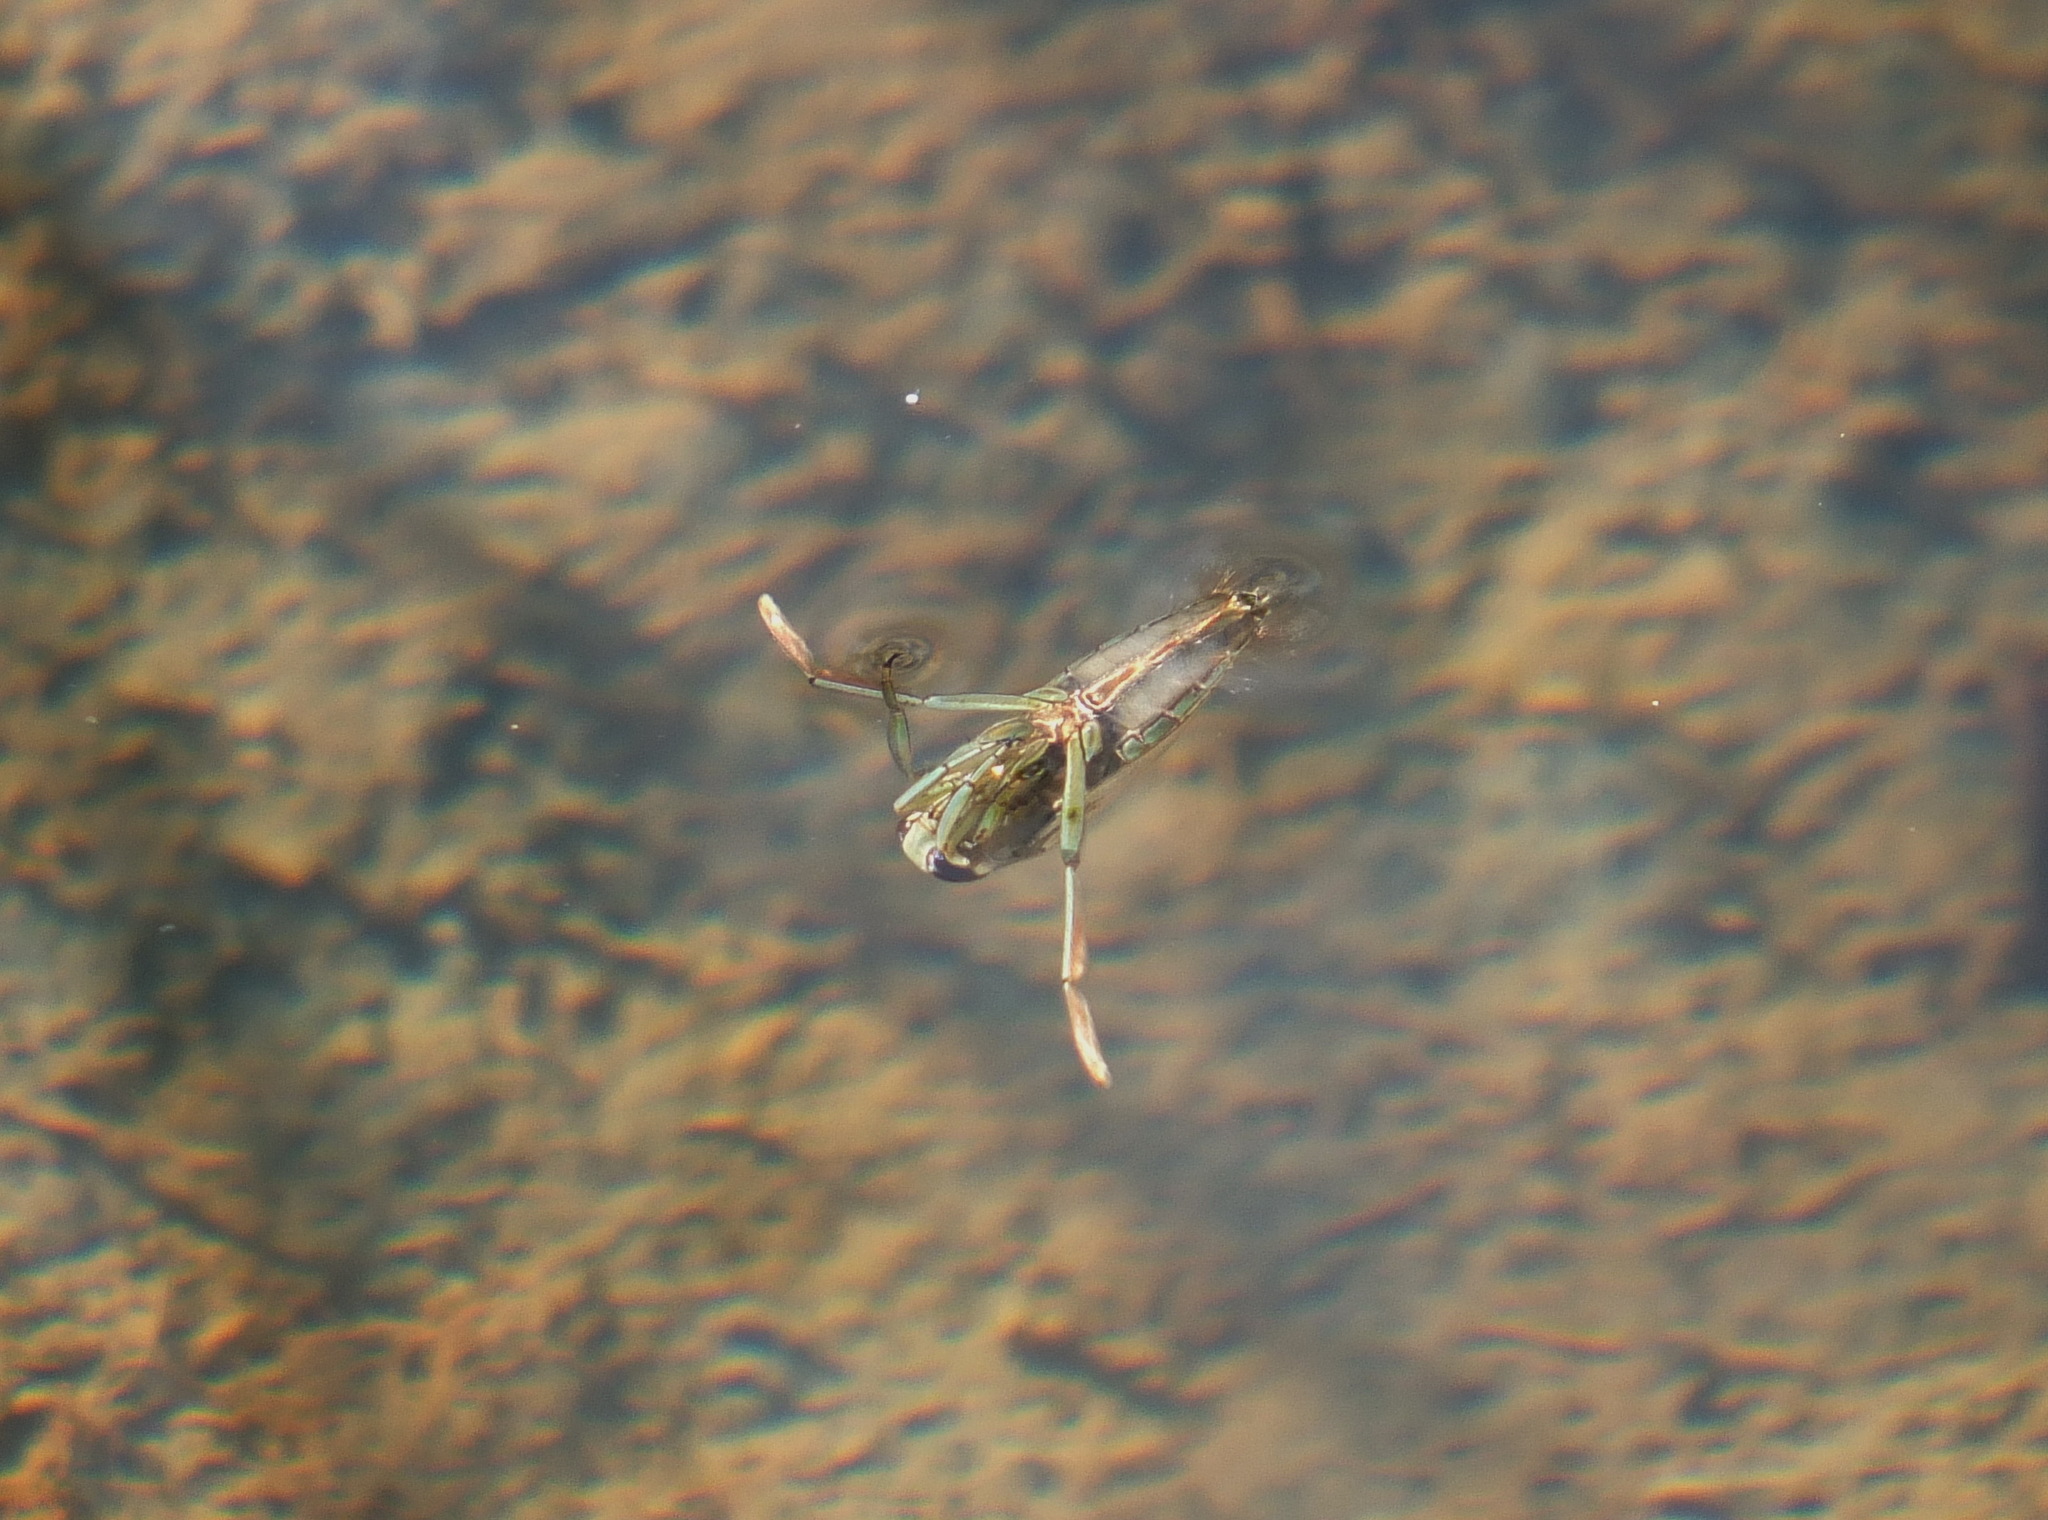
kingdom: Animalia
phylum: Arthropoda
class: Insecta
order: Hemiptera
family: Notonectidae
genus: Notonecta
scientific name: Notonecta
